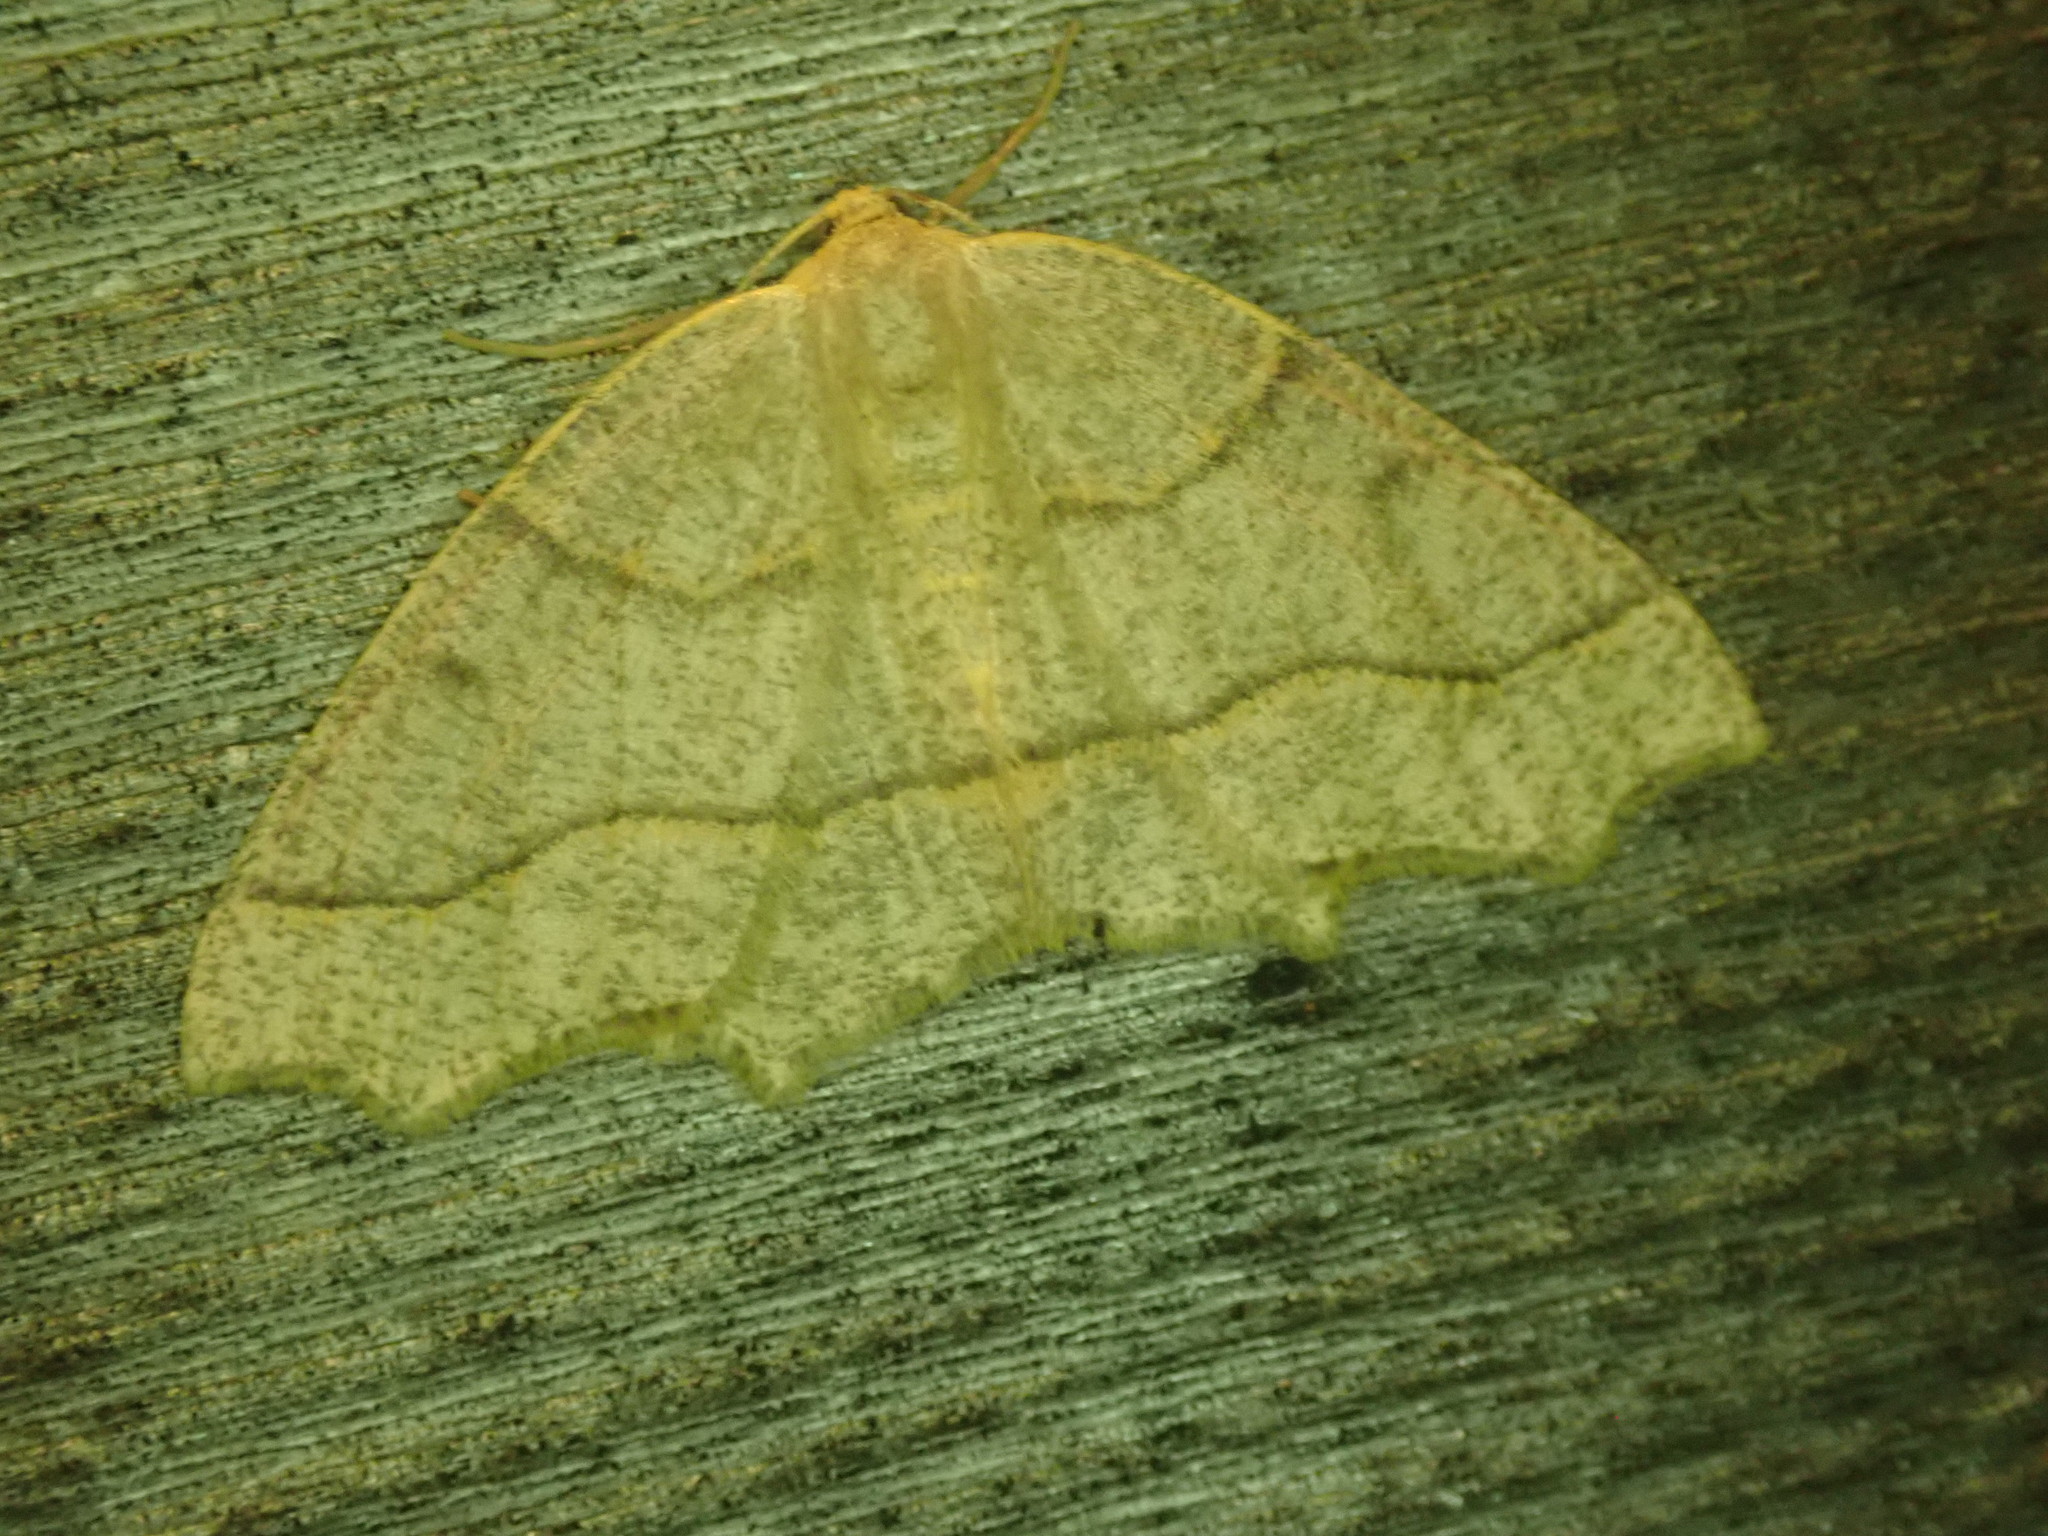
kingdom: Animalia
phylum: Arthropoda
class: Insecta
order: Lepidoptera
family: Geometridae
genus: Lambdina
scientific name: Lambdina fiscellaria
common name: Hemlock looper
